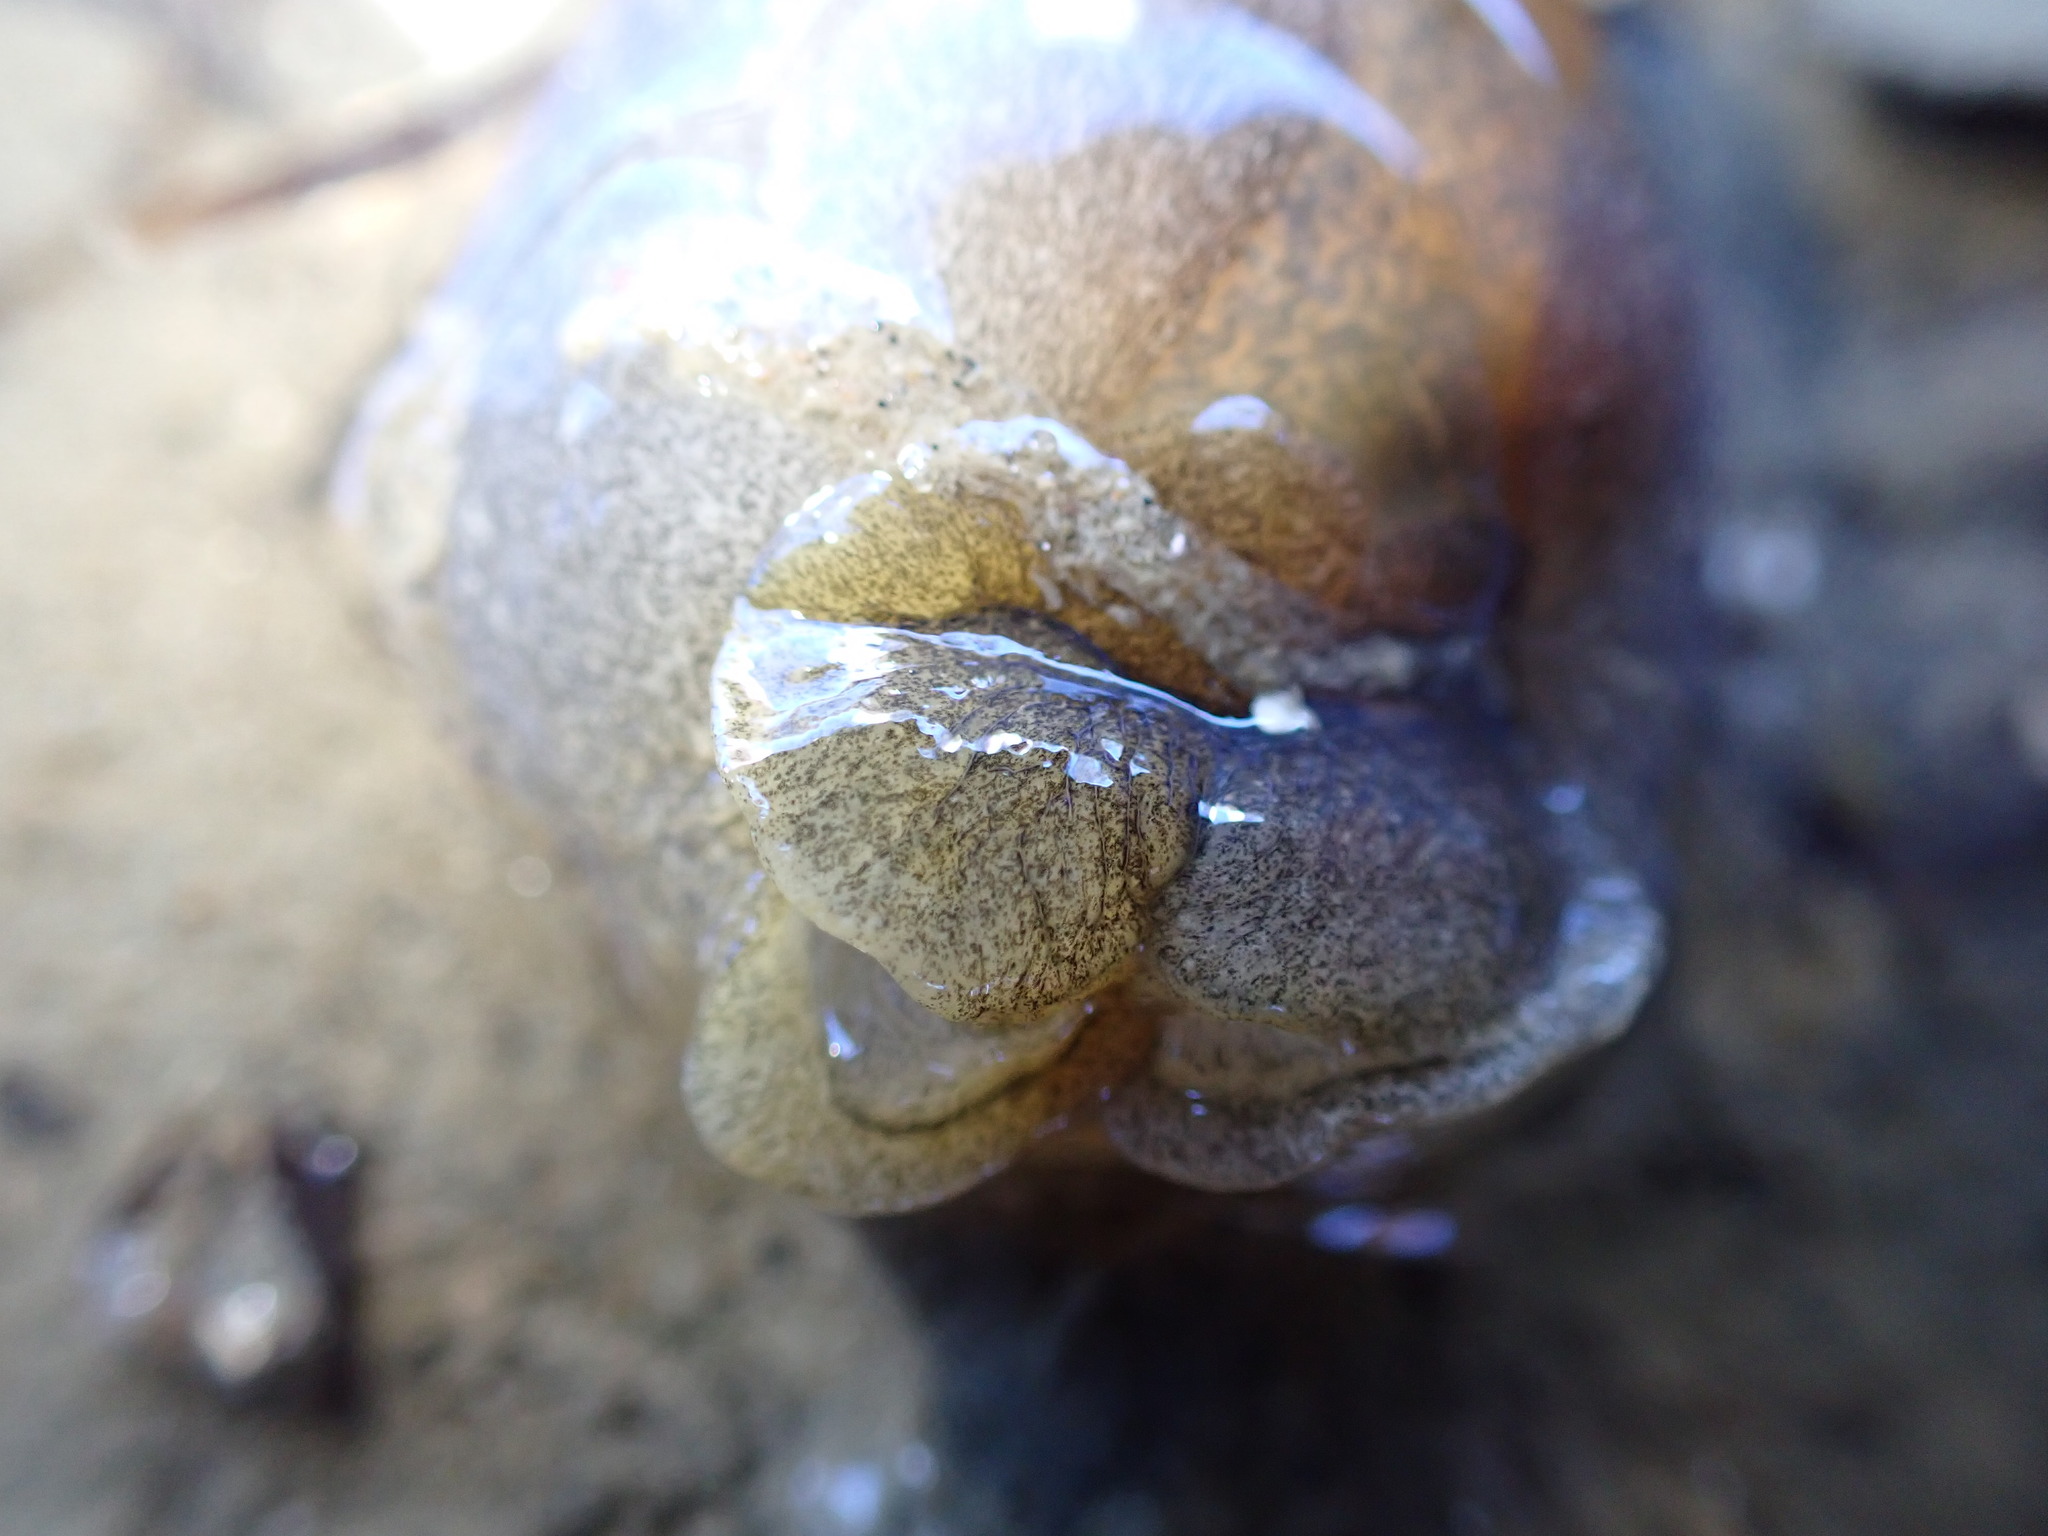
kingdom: Animalia
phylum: Mollusca
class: Gastropoda
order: Cephalaspidea
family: Haminoeidae
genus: Papawera
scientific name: Papawera zelandiae
